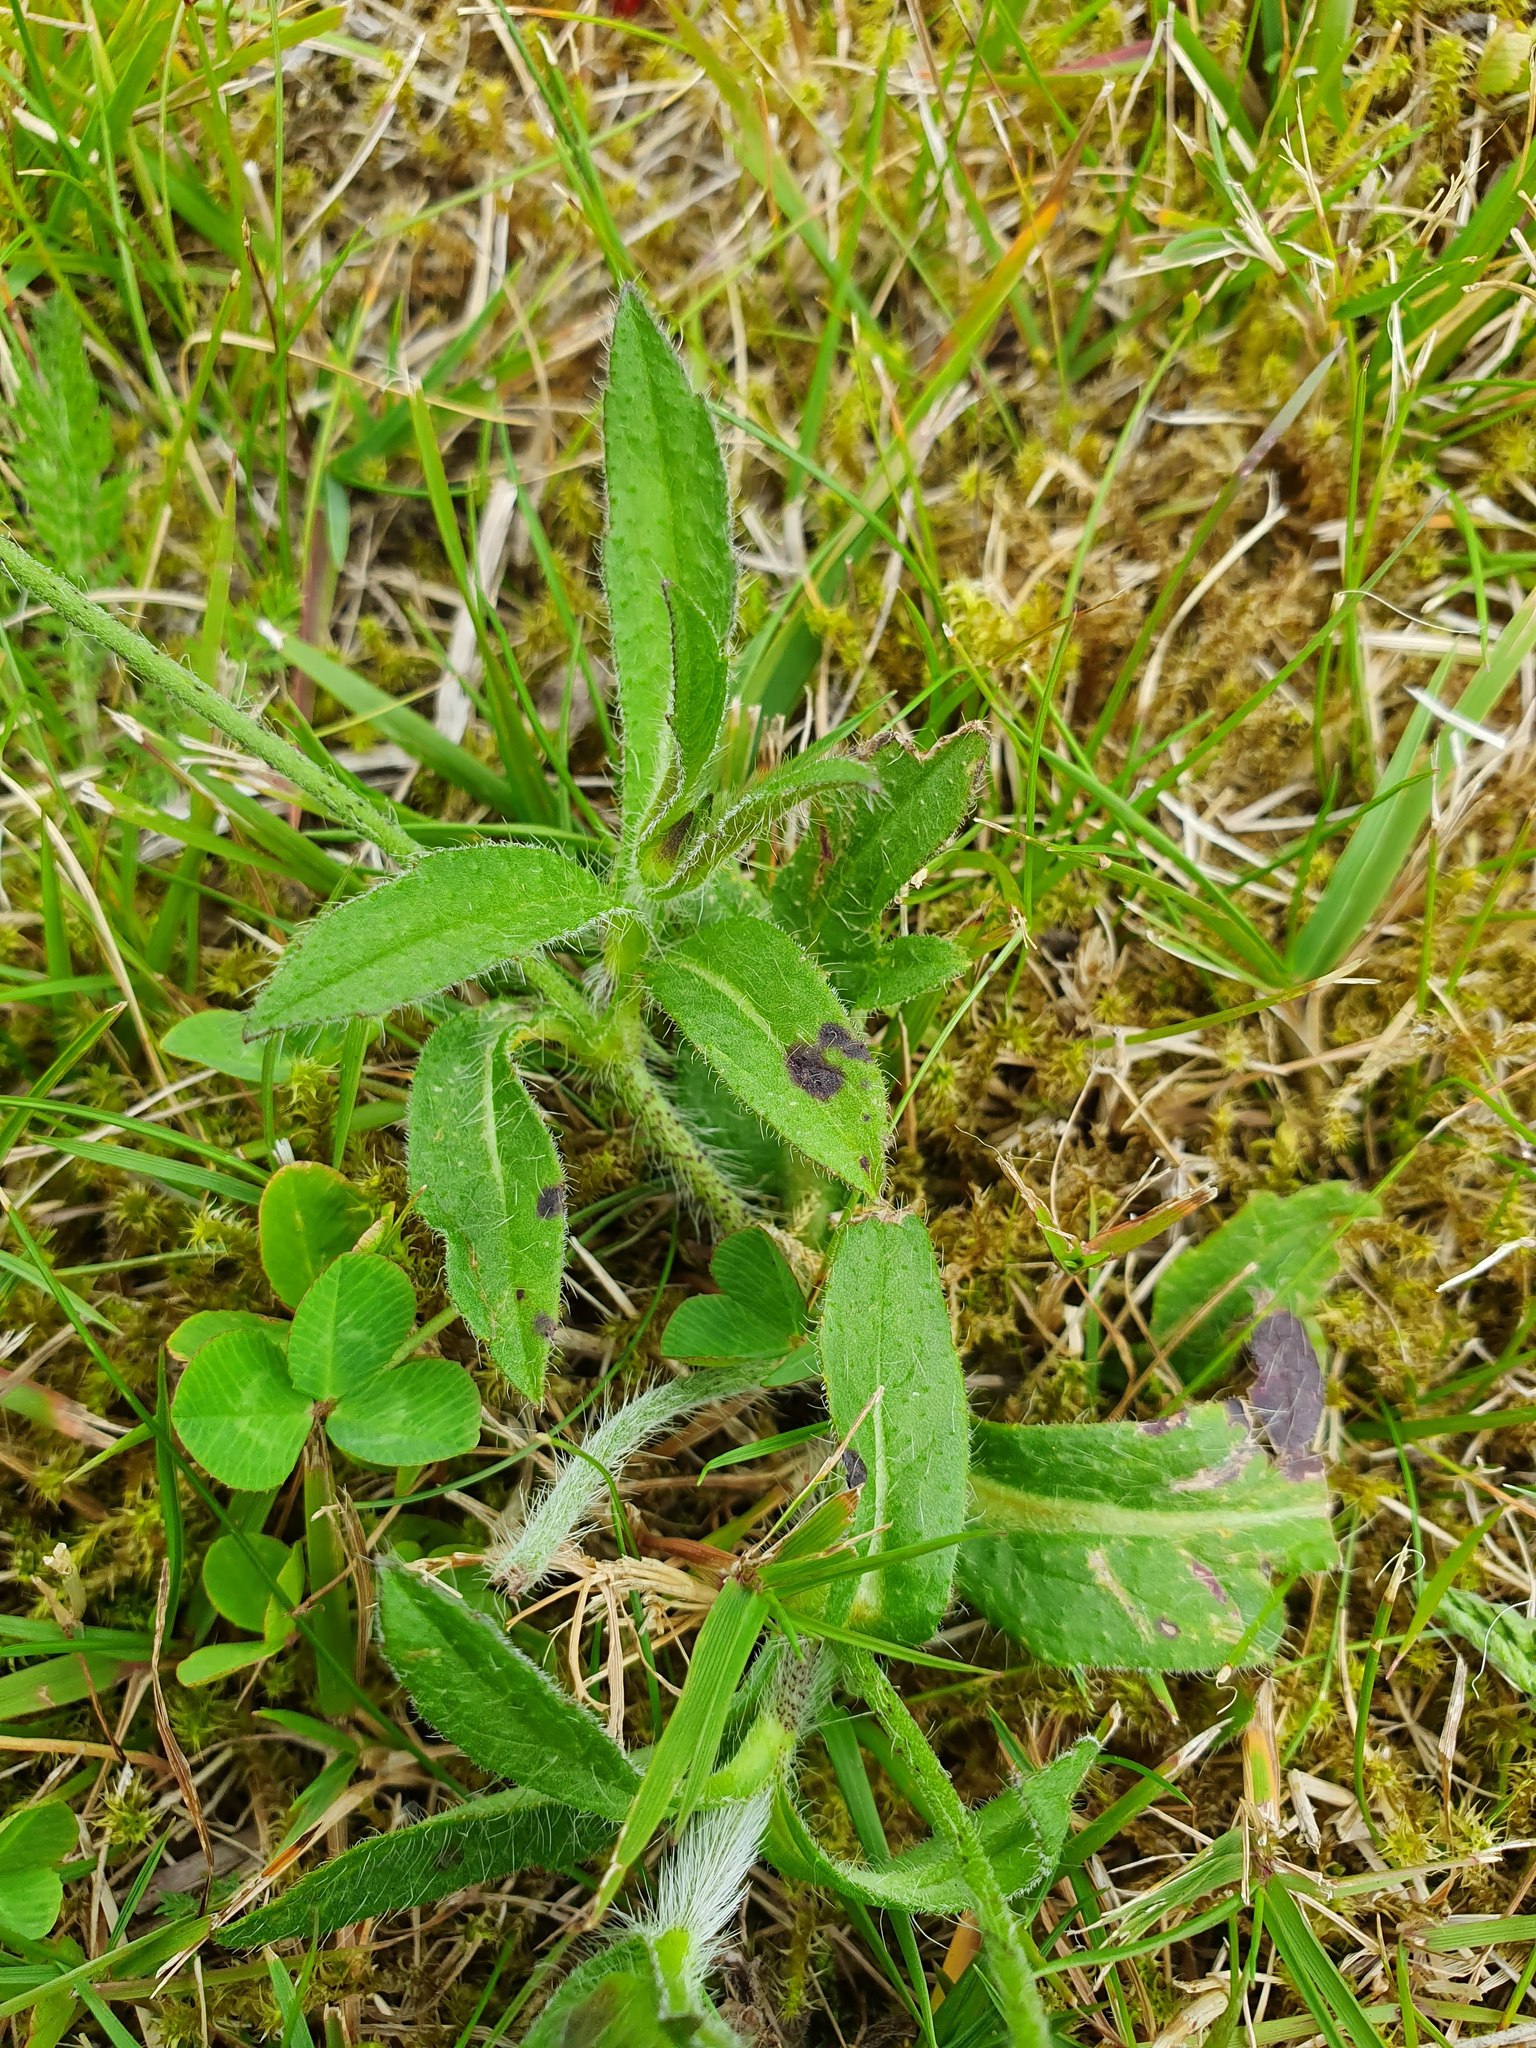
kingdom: Plantae
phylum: Tracheophyta
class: Magnoliopsida
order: Dipsacales
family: Caprifoliaceae
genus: Knautia
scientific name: Knautia arvensis
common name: Field scabiosa
